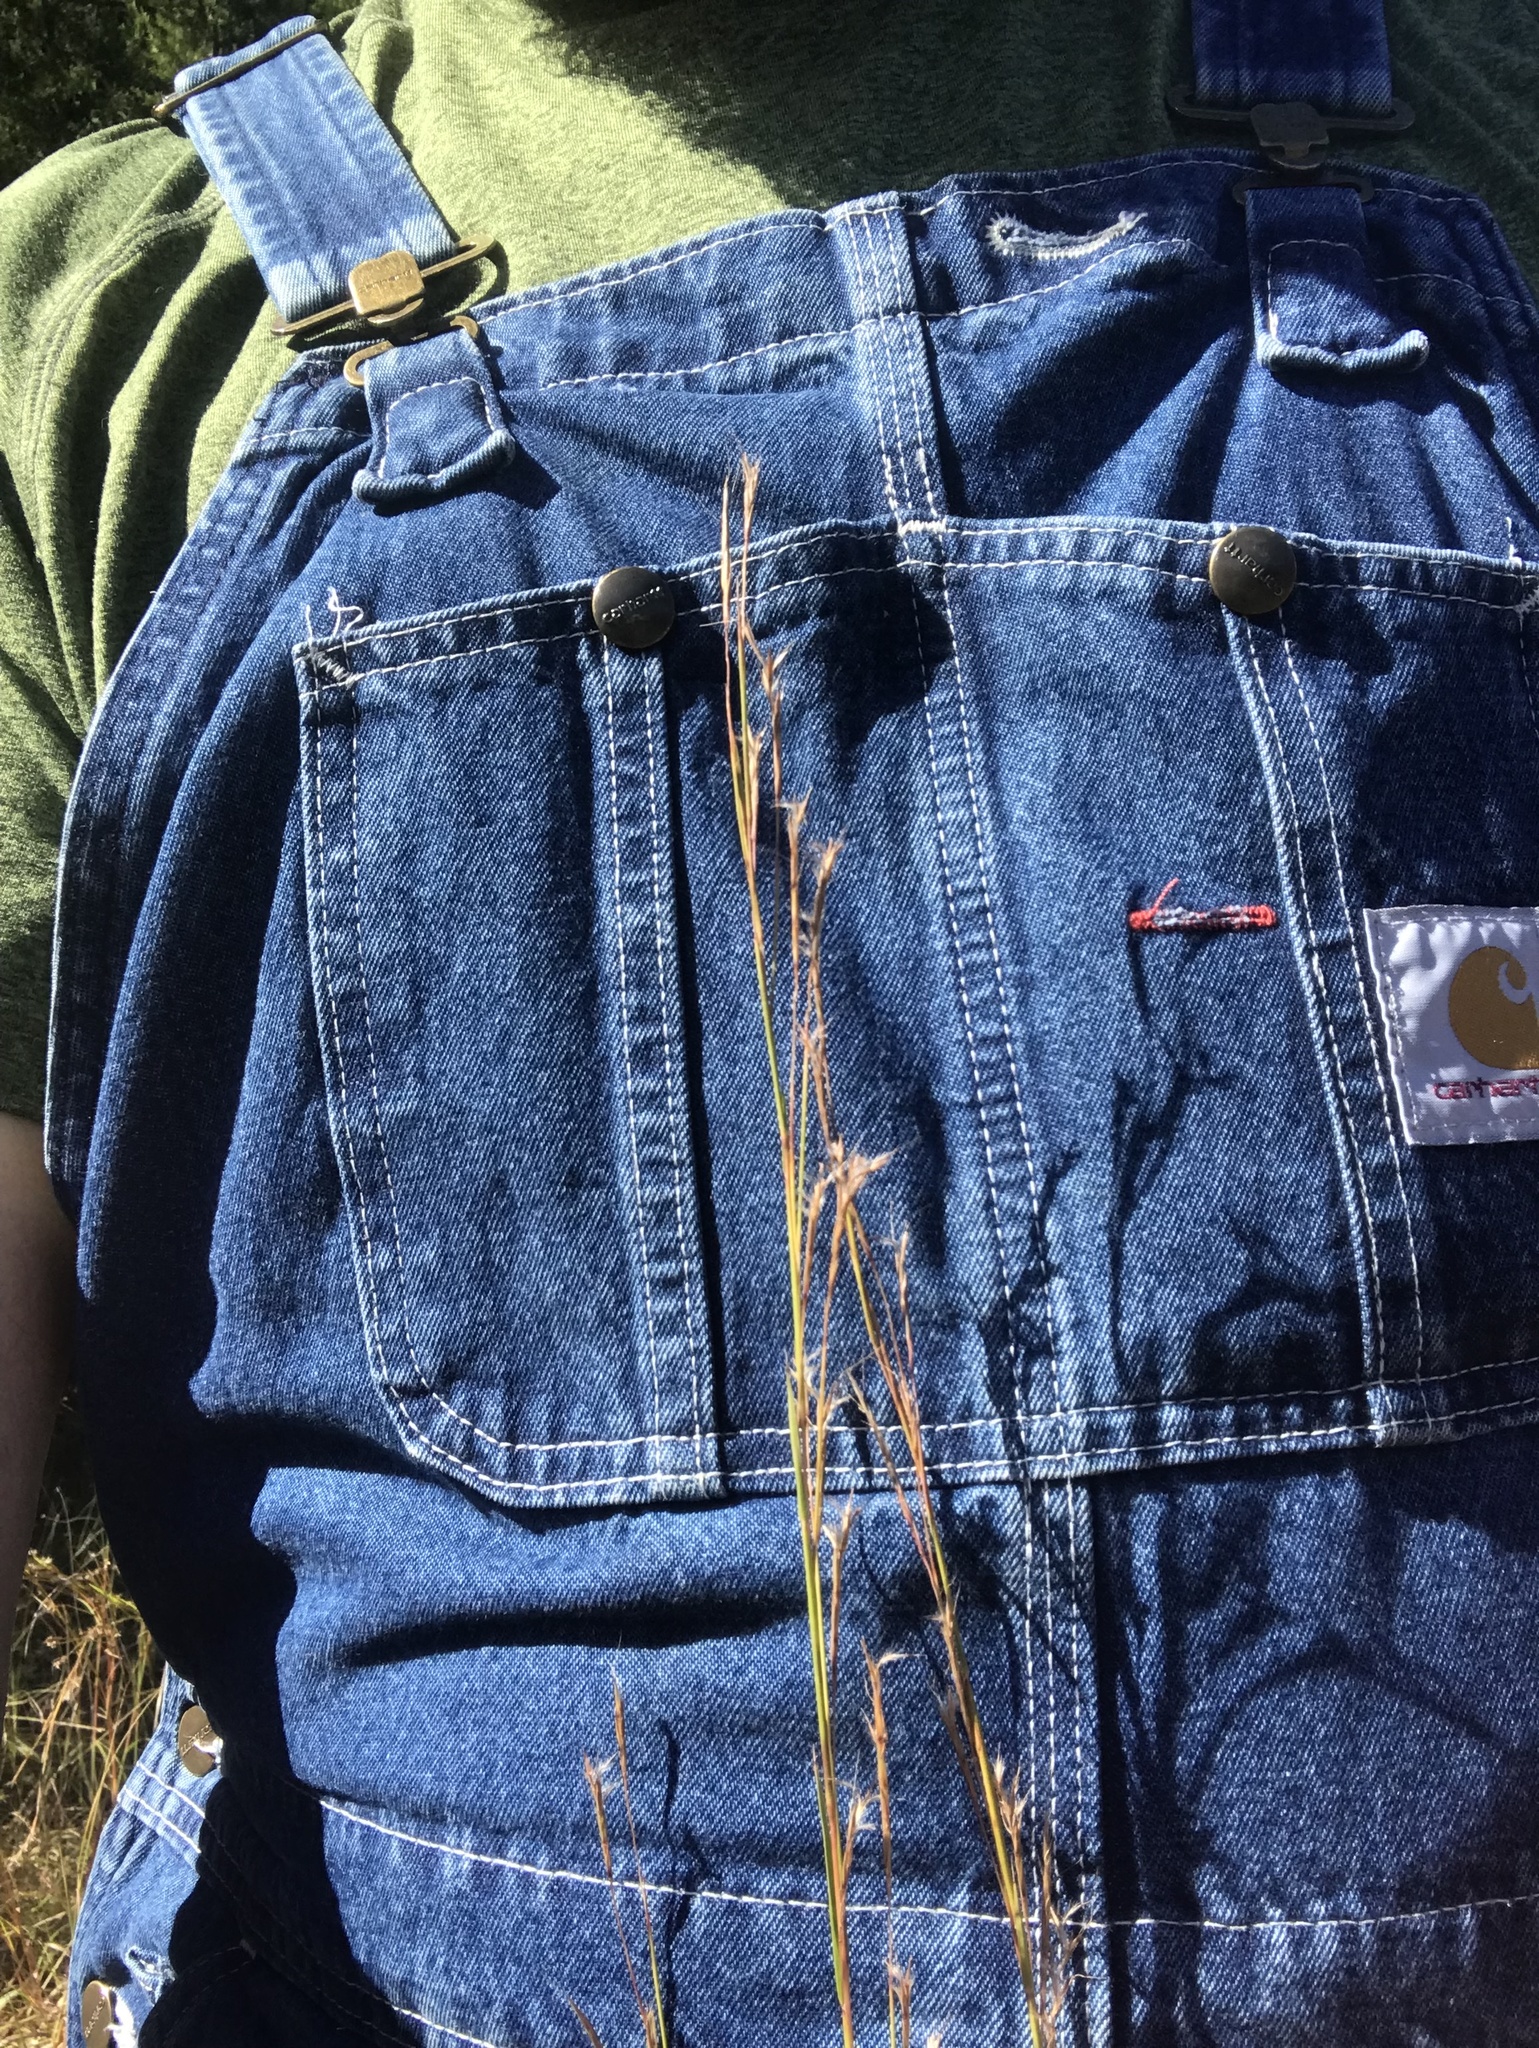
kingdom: Plantae
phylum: Tracheophyta
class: Liliopsida
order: Poales
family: Poaceae
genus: Schizachyrium
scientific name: Schizachyrium scoparium
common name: Little bluestem
